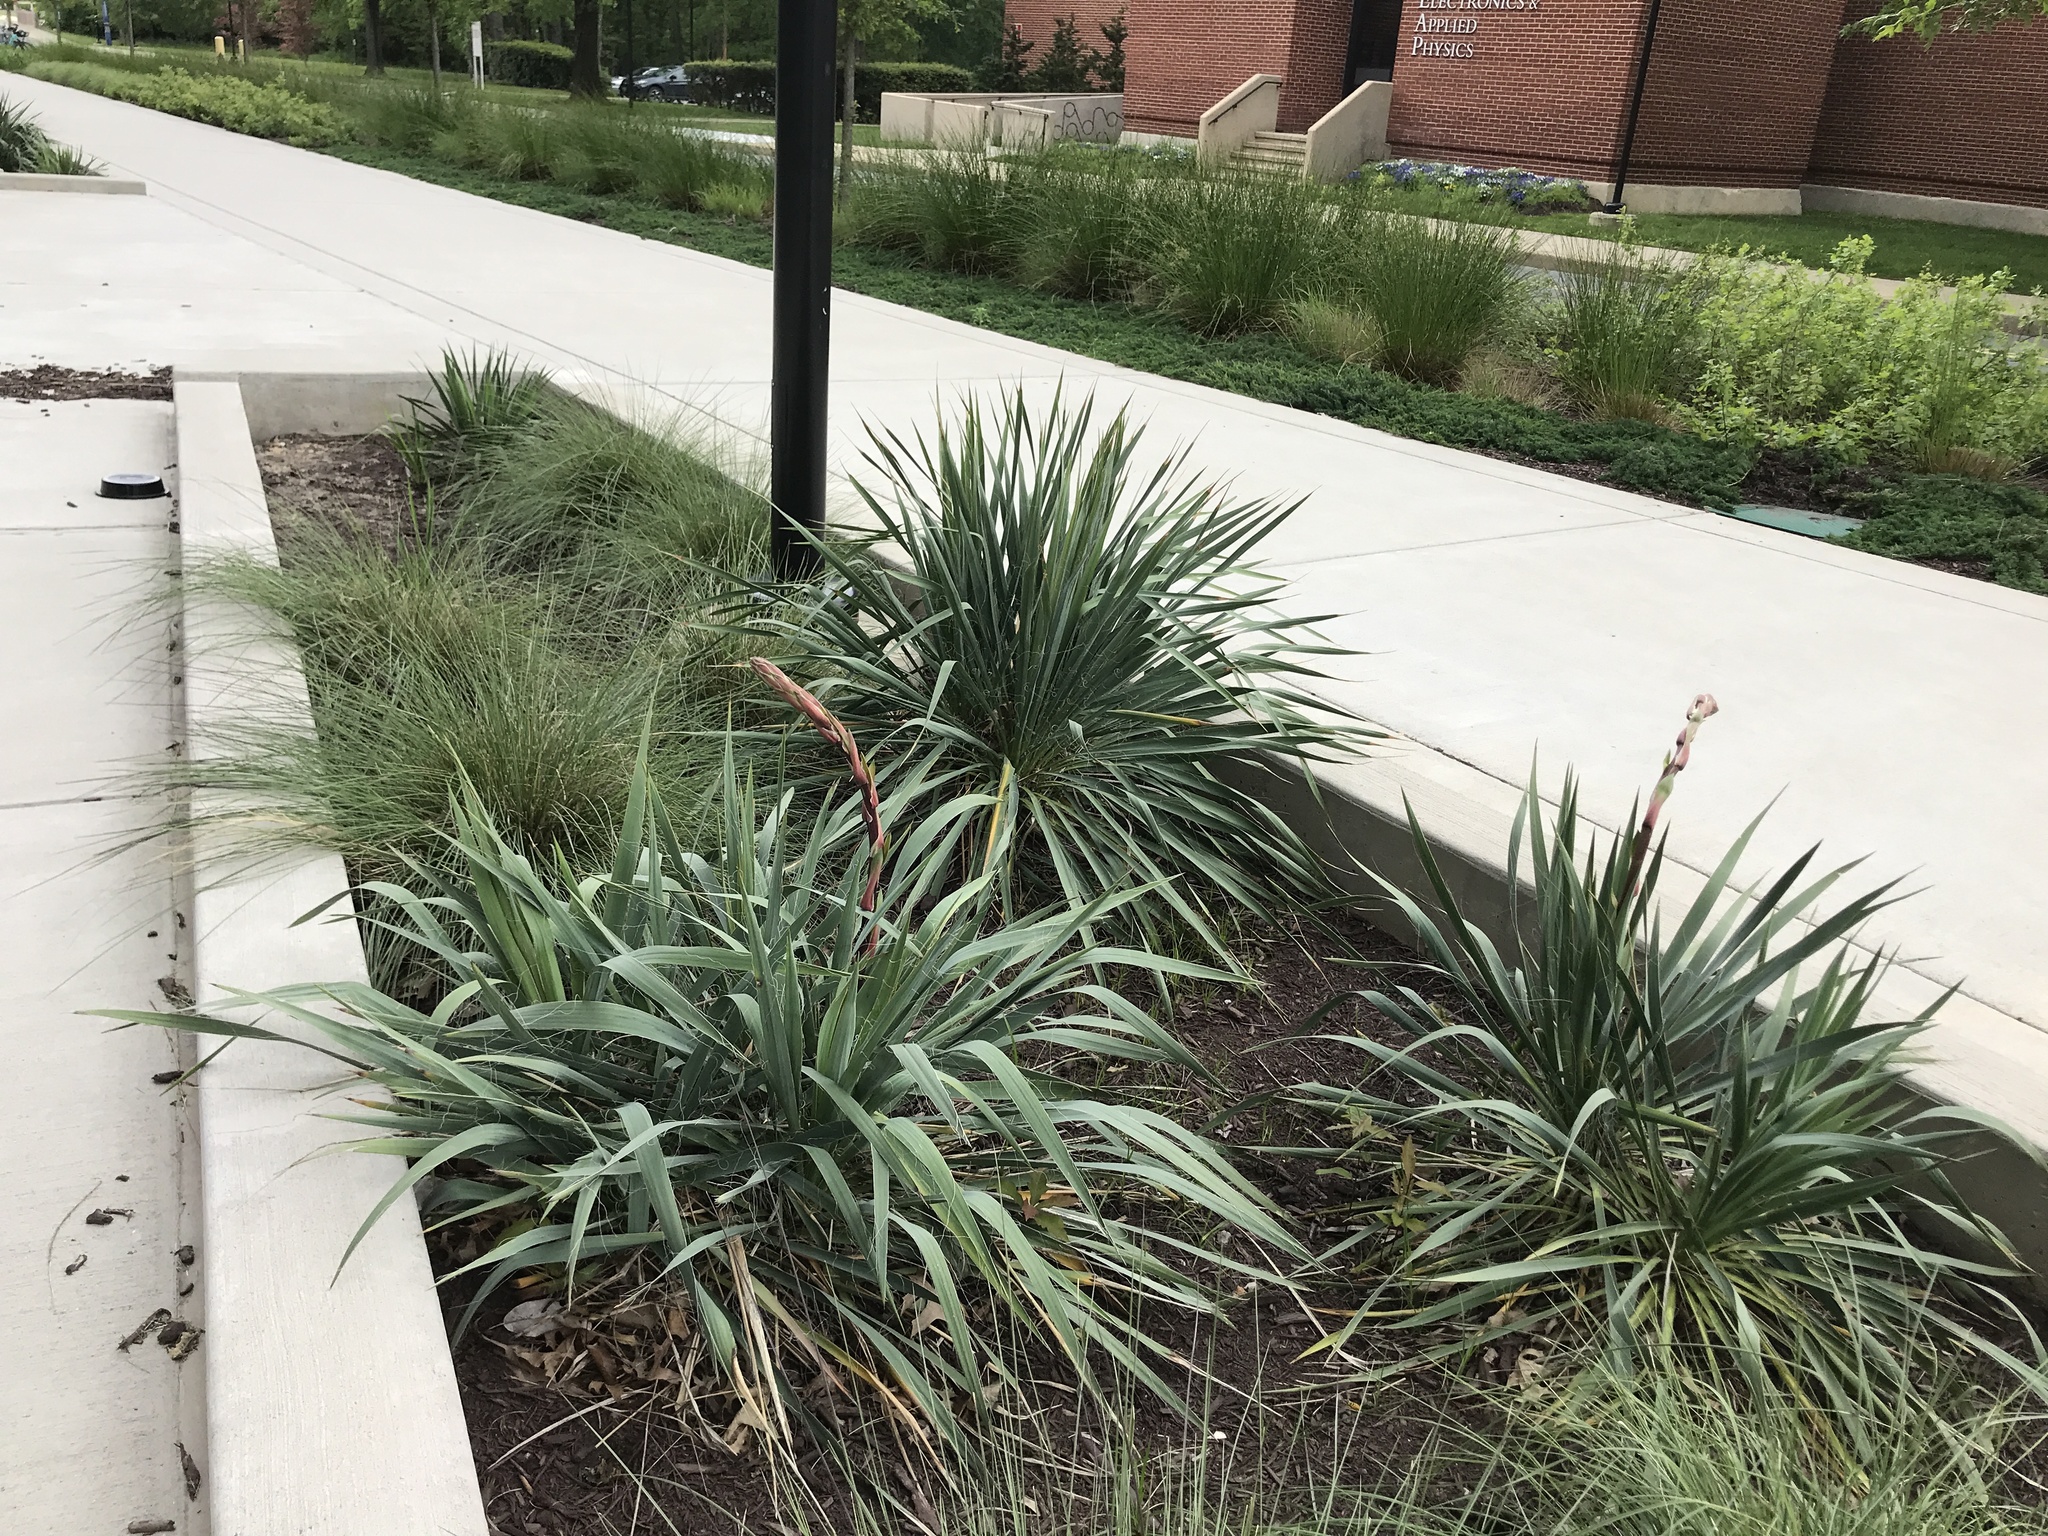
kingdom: Plantae
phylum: Tracheophyta
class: Liliopsida
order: Asparagales
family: Asparagaceae
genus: Yucca
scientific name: Yucca filamentosa
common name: Adam's-needle
